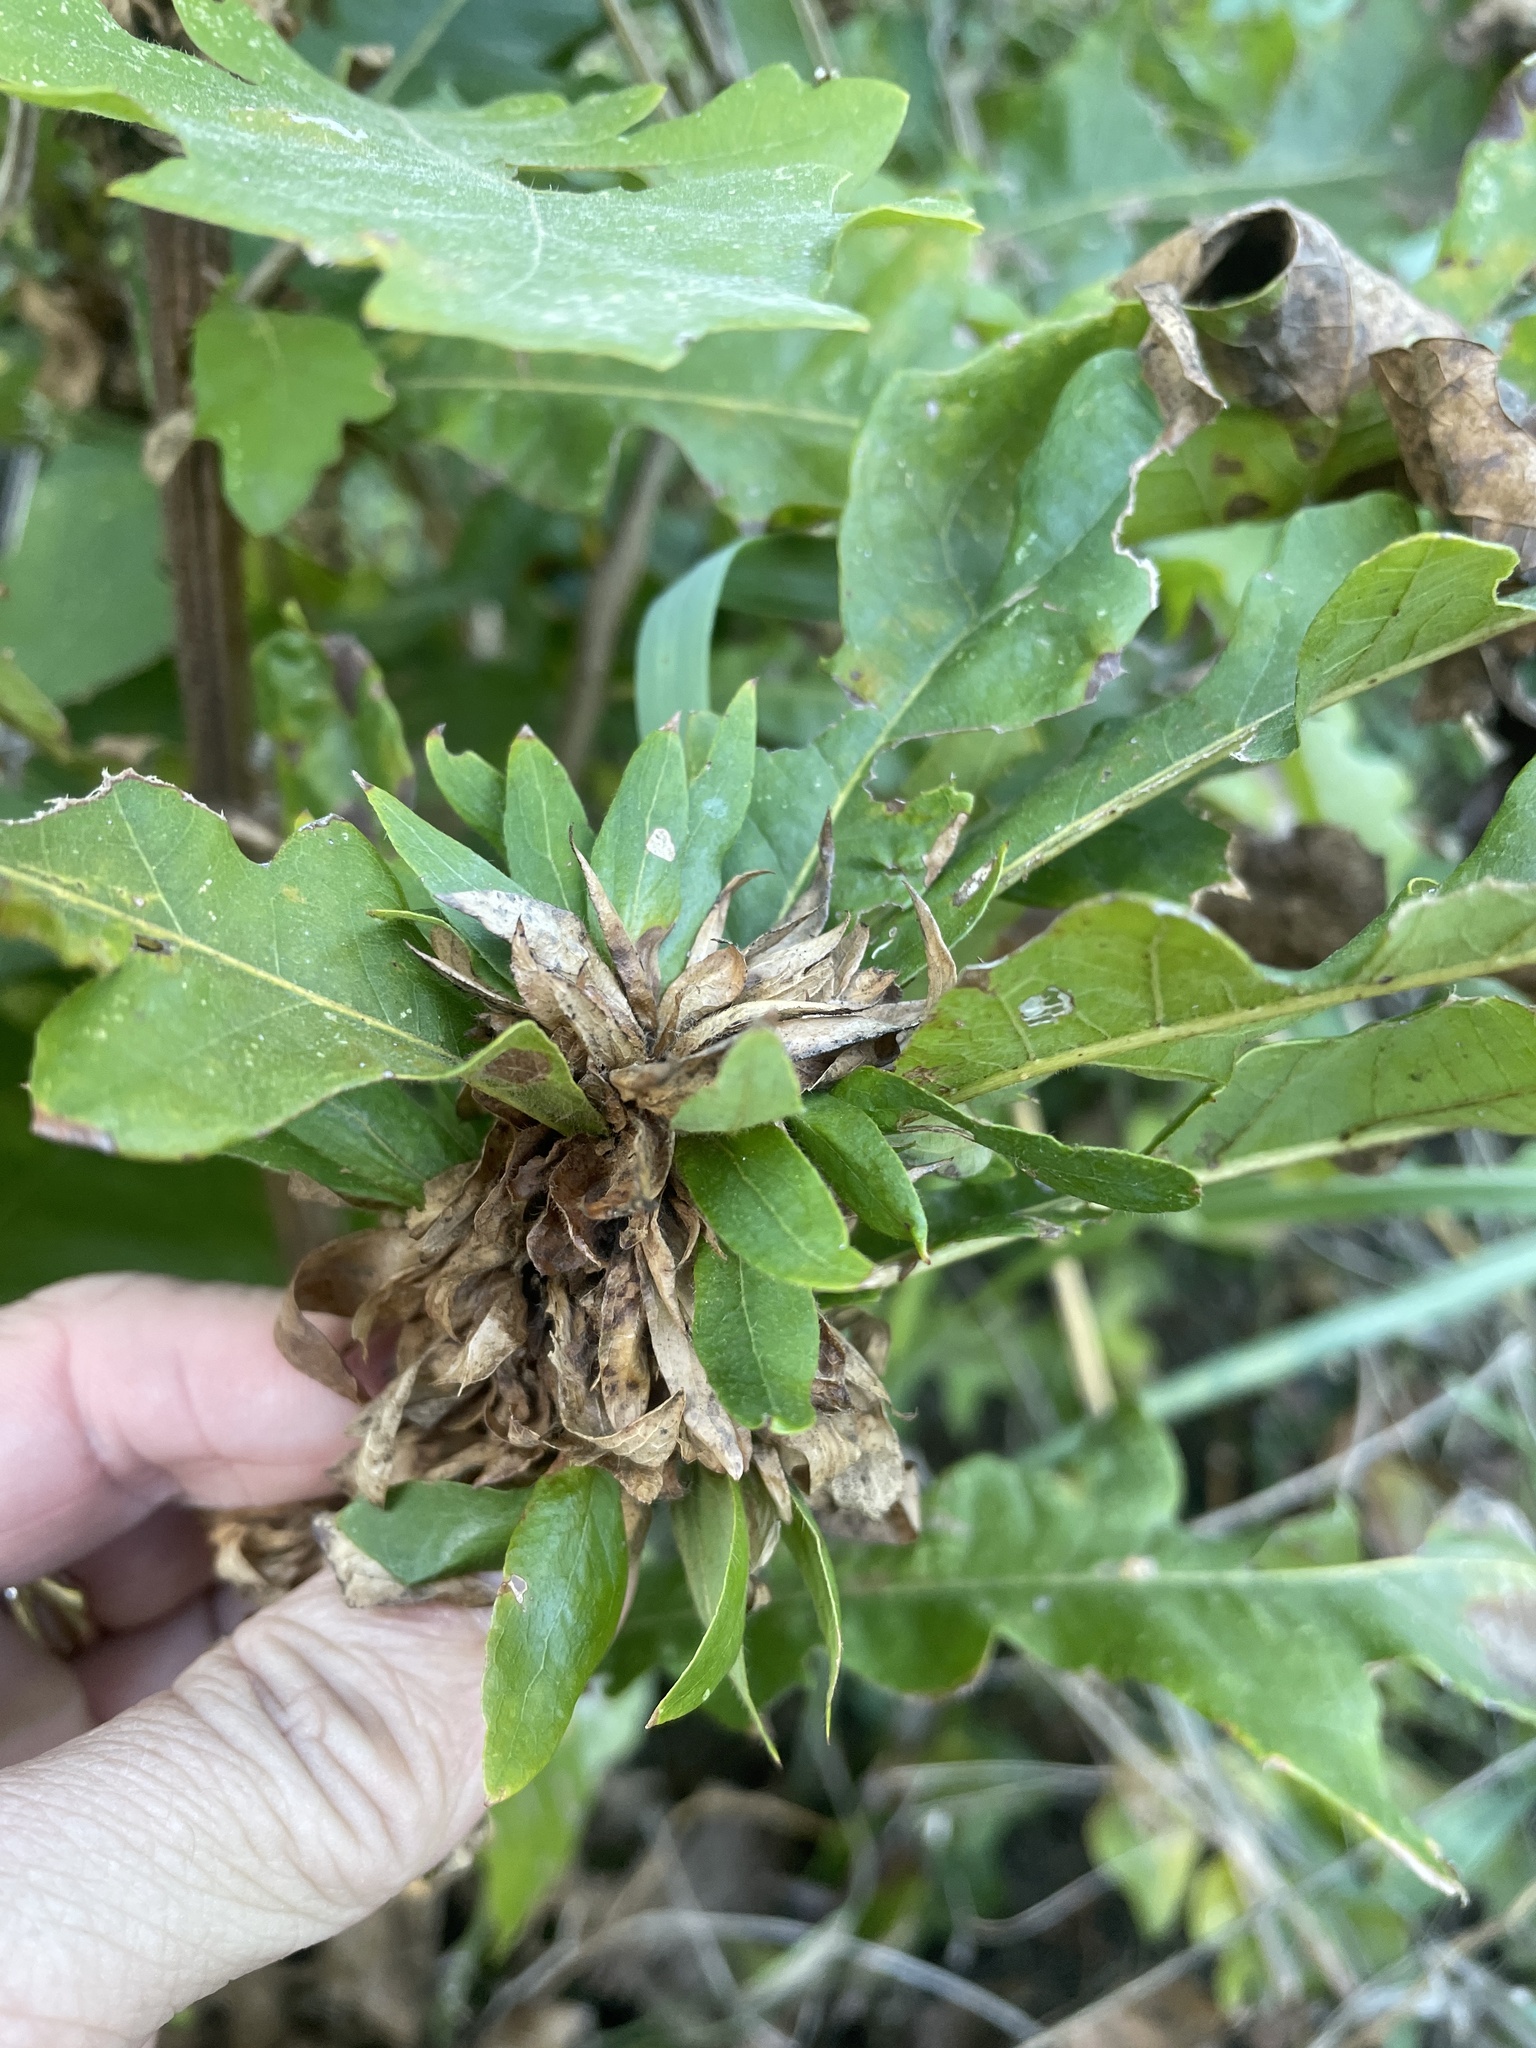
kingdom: Animalia
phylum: Arthropoda
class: Insecta
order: Hymenoptera
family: Cynipidae
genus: Andricus
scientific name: Andricus
